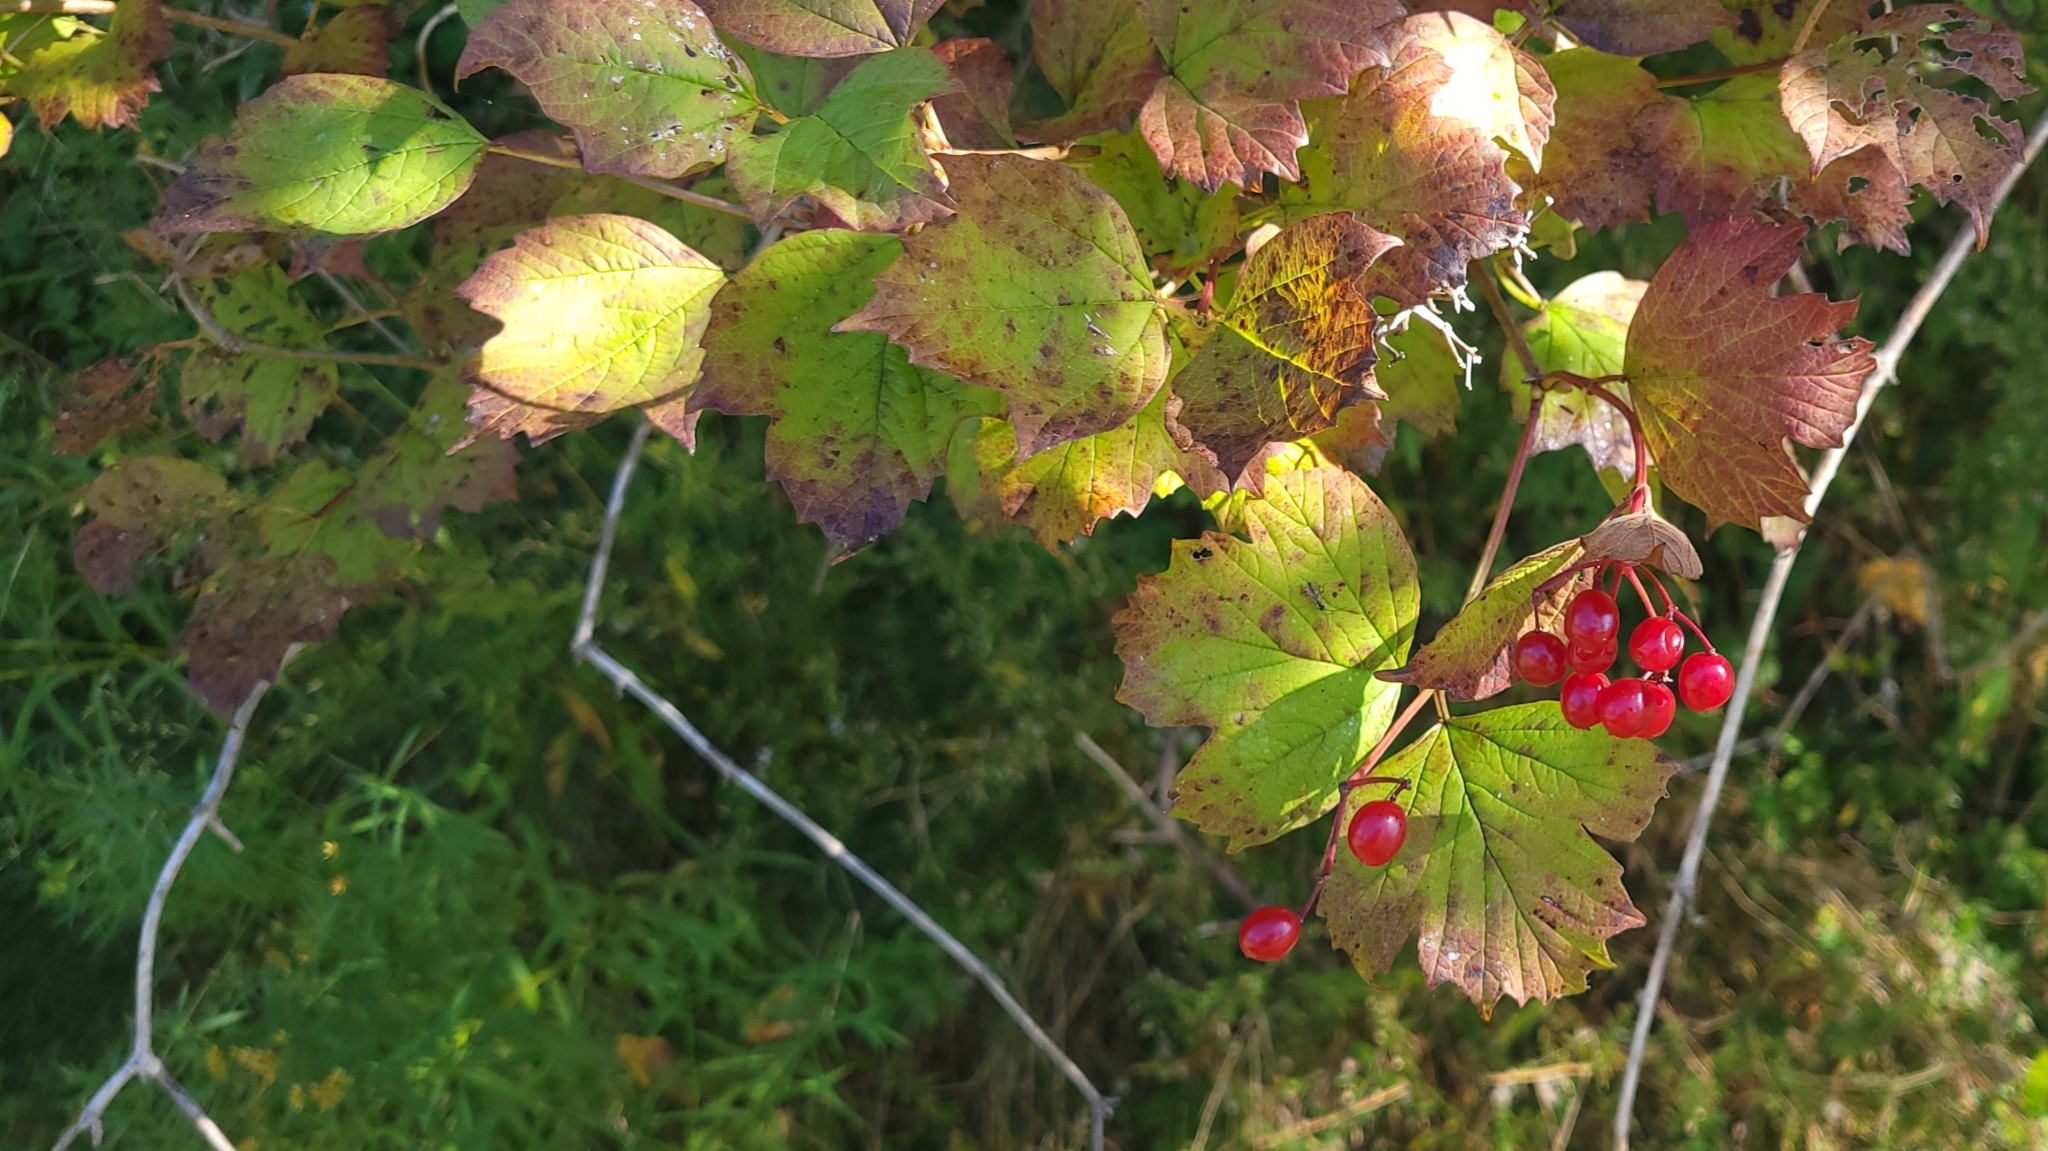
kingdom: Plantae
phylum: Tracheophyta
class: Magnoliopsida
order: Dipsacales
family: Viburnaceae
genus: Viburnum
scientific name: Viburnum opulus
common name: Guelder-rose
